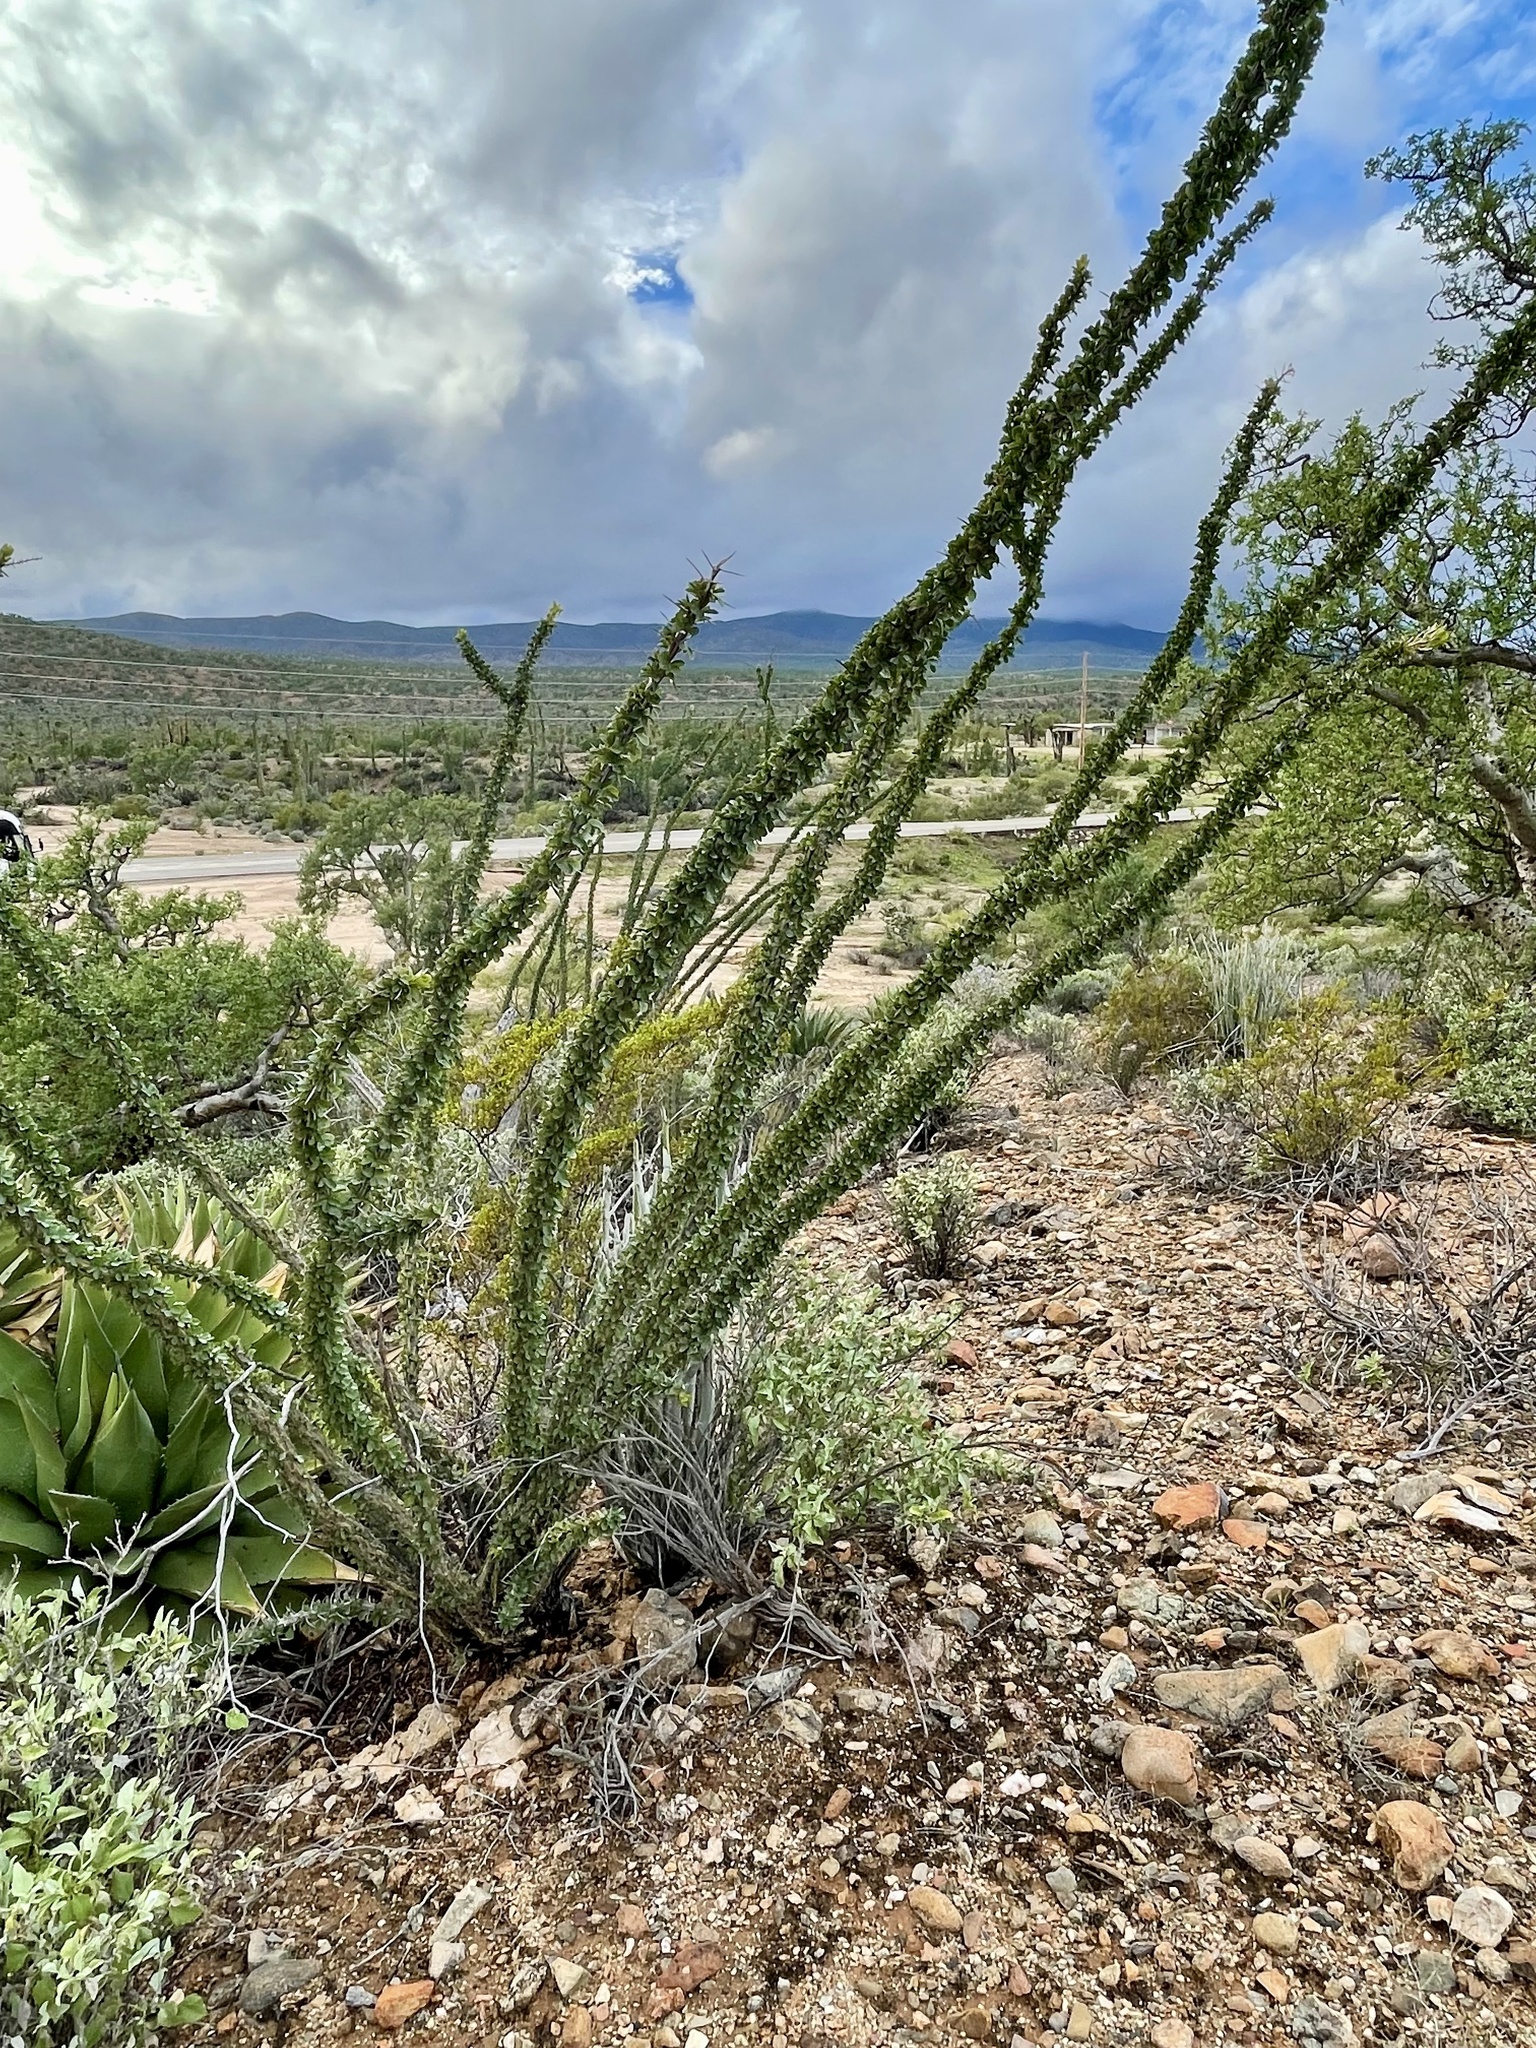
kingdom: Plantae
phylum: Tracheophyta
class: Magnoliopsida
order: Ericales
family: Fouquieriaceae
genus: Fouquieria
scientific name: Fouquieria splendens
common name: Vine-cactus
